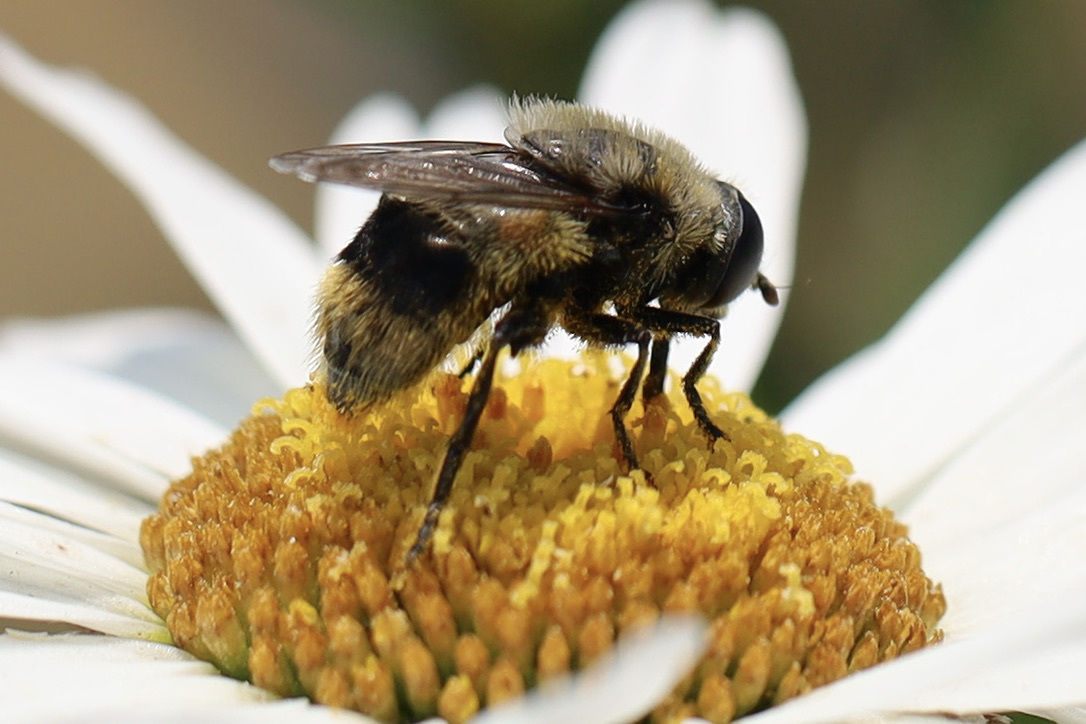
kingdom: Animalia
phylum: Arthropoda
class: Insecta
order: Diptera
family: Syrphidae
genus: Merodon
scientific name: Merodon equestris
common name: Greater bulb-fly
